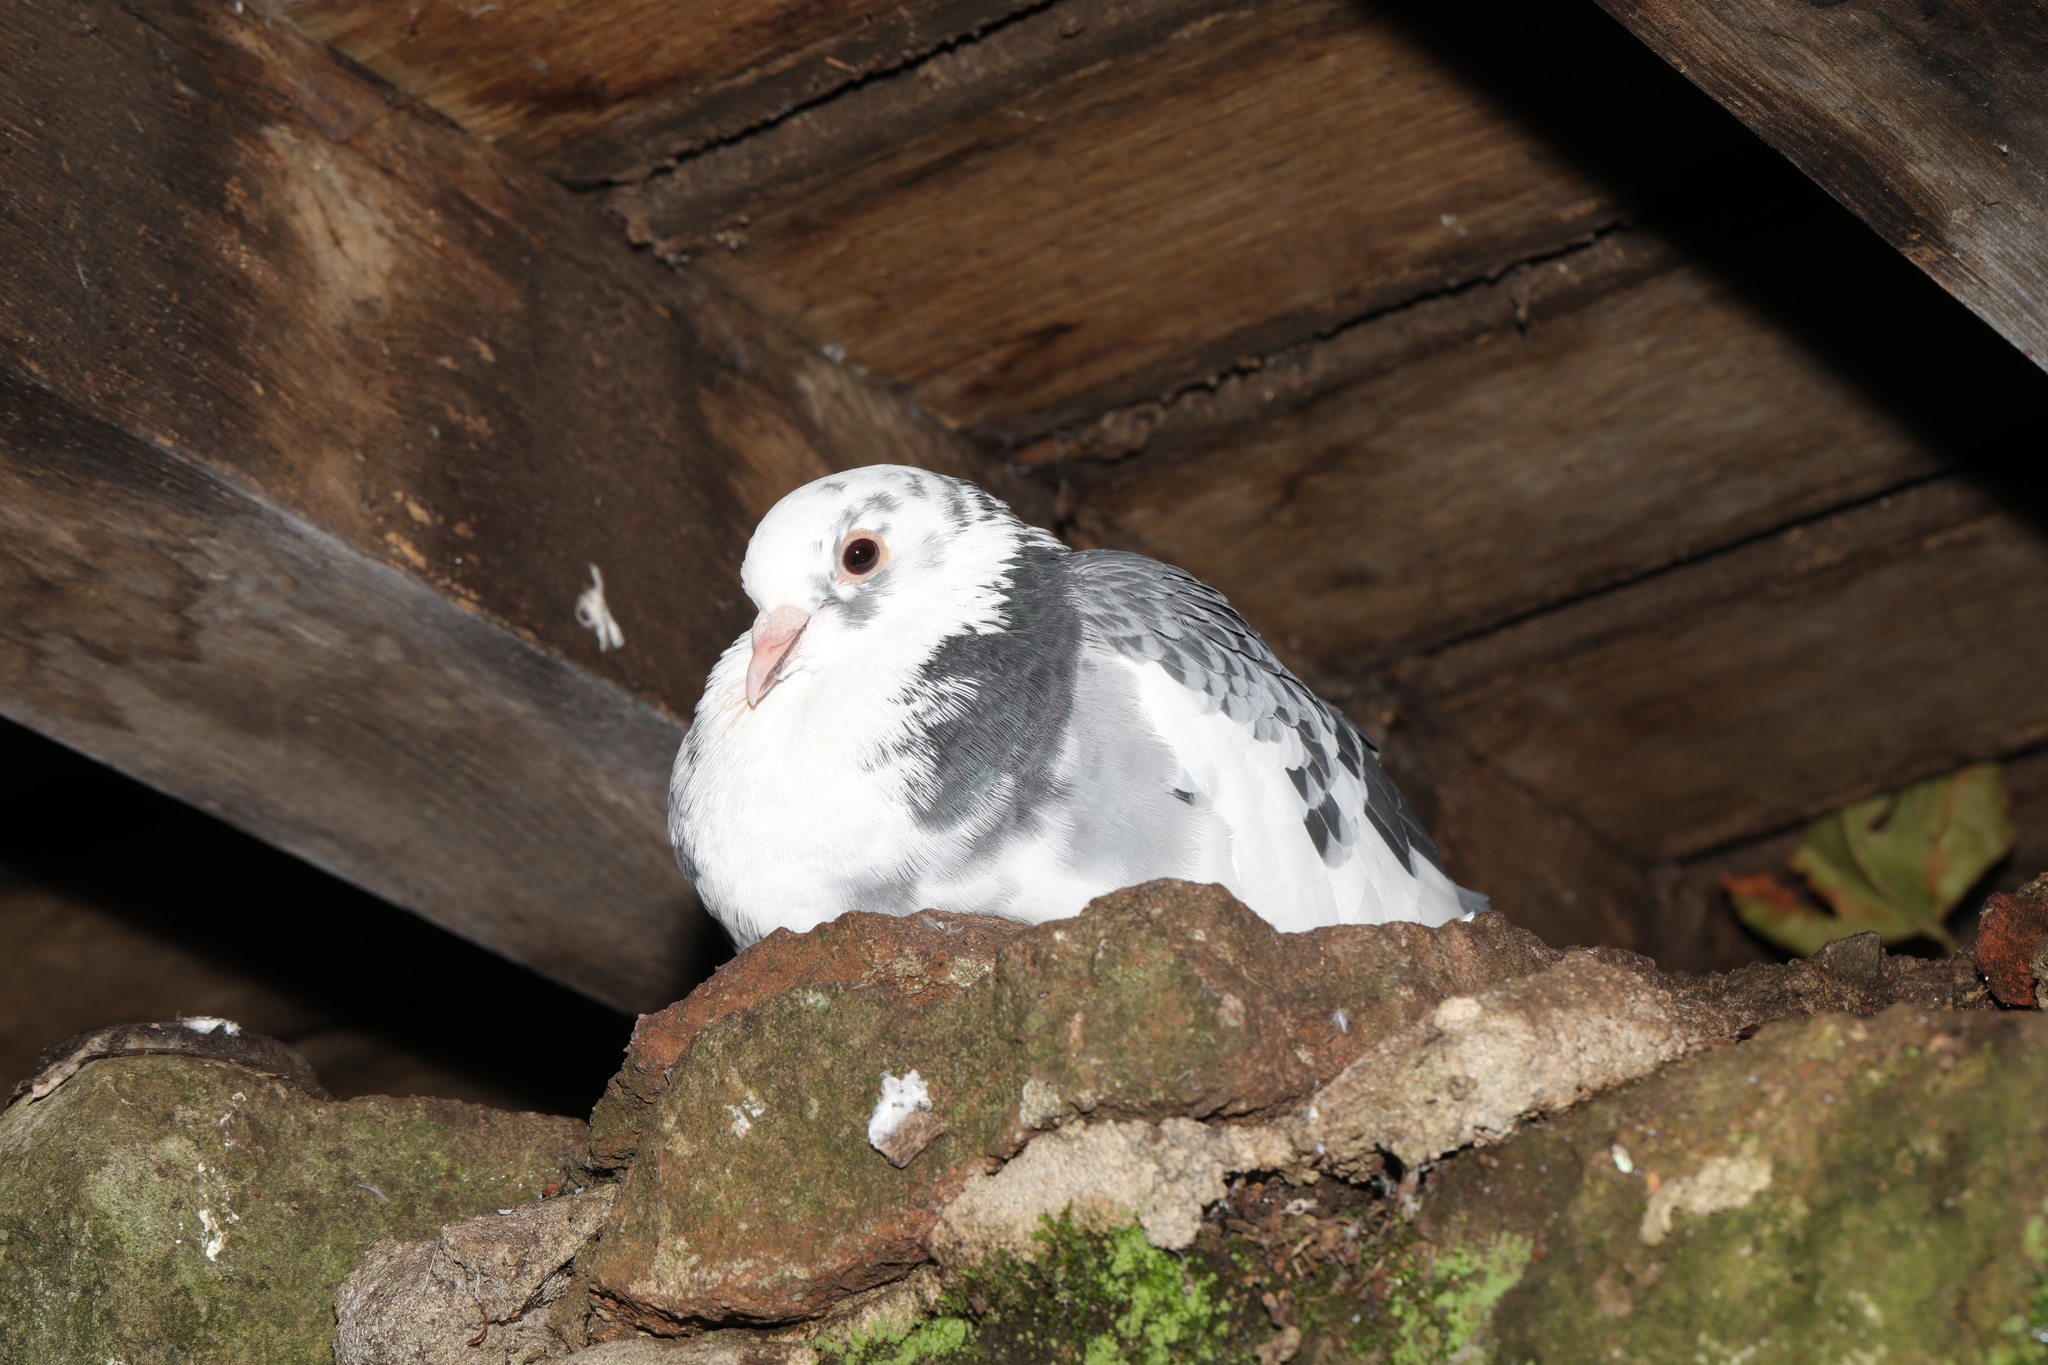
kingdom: Animalia
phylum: Chordata
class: Aves
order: Columbiformes
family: Columbidae
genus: Columba
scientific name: Columba livia
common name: Rock pigeon
